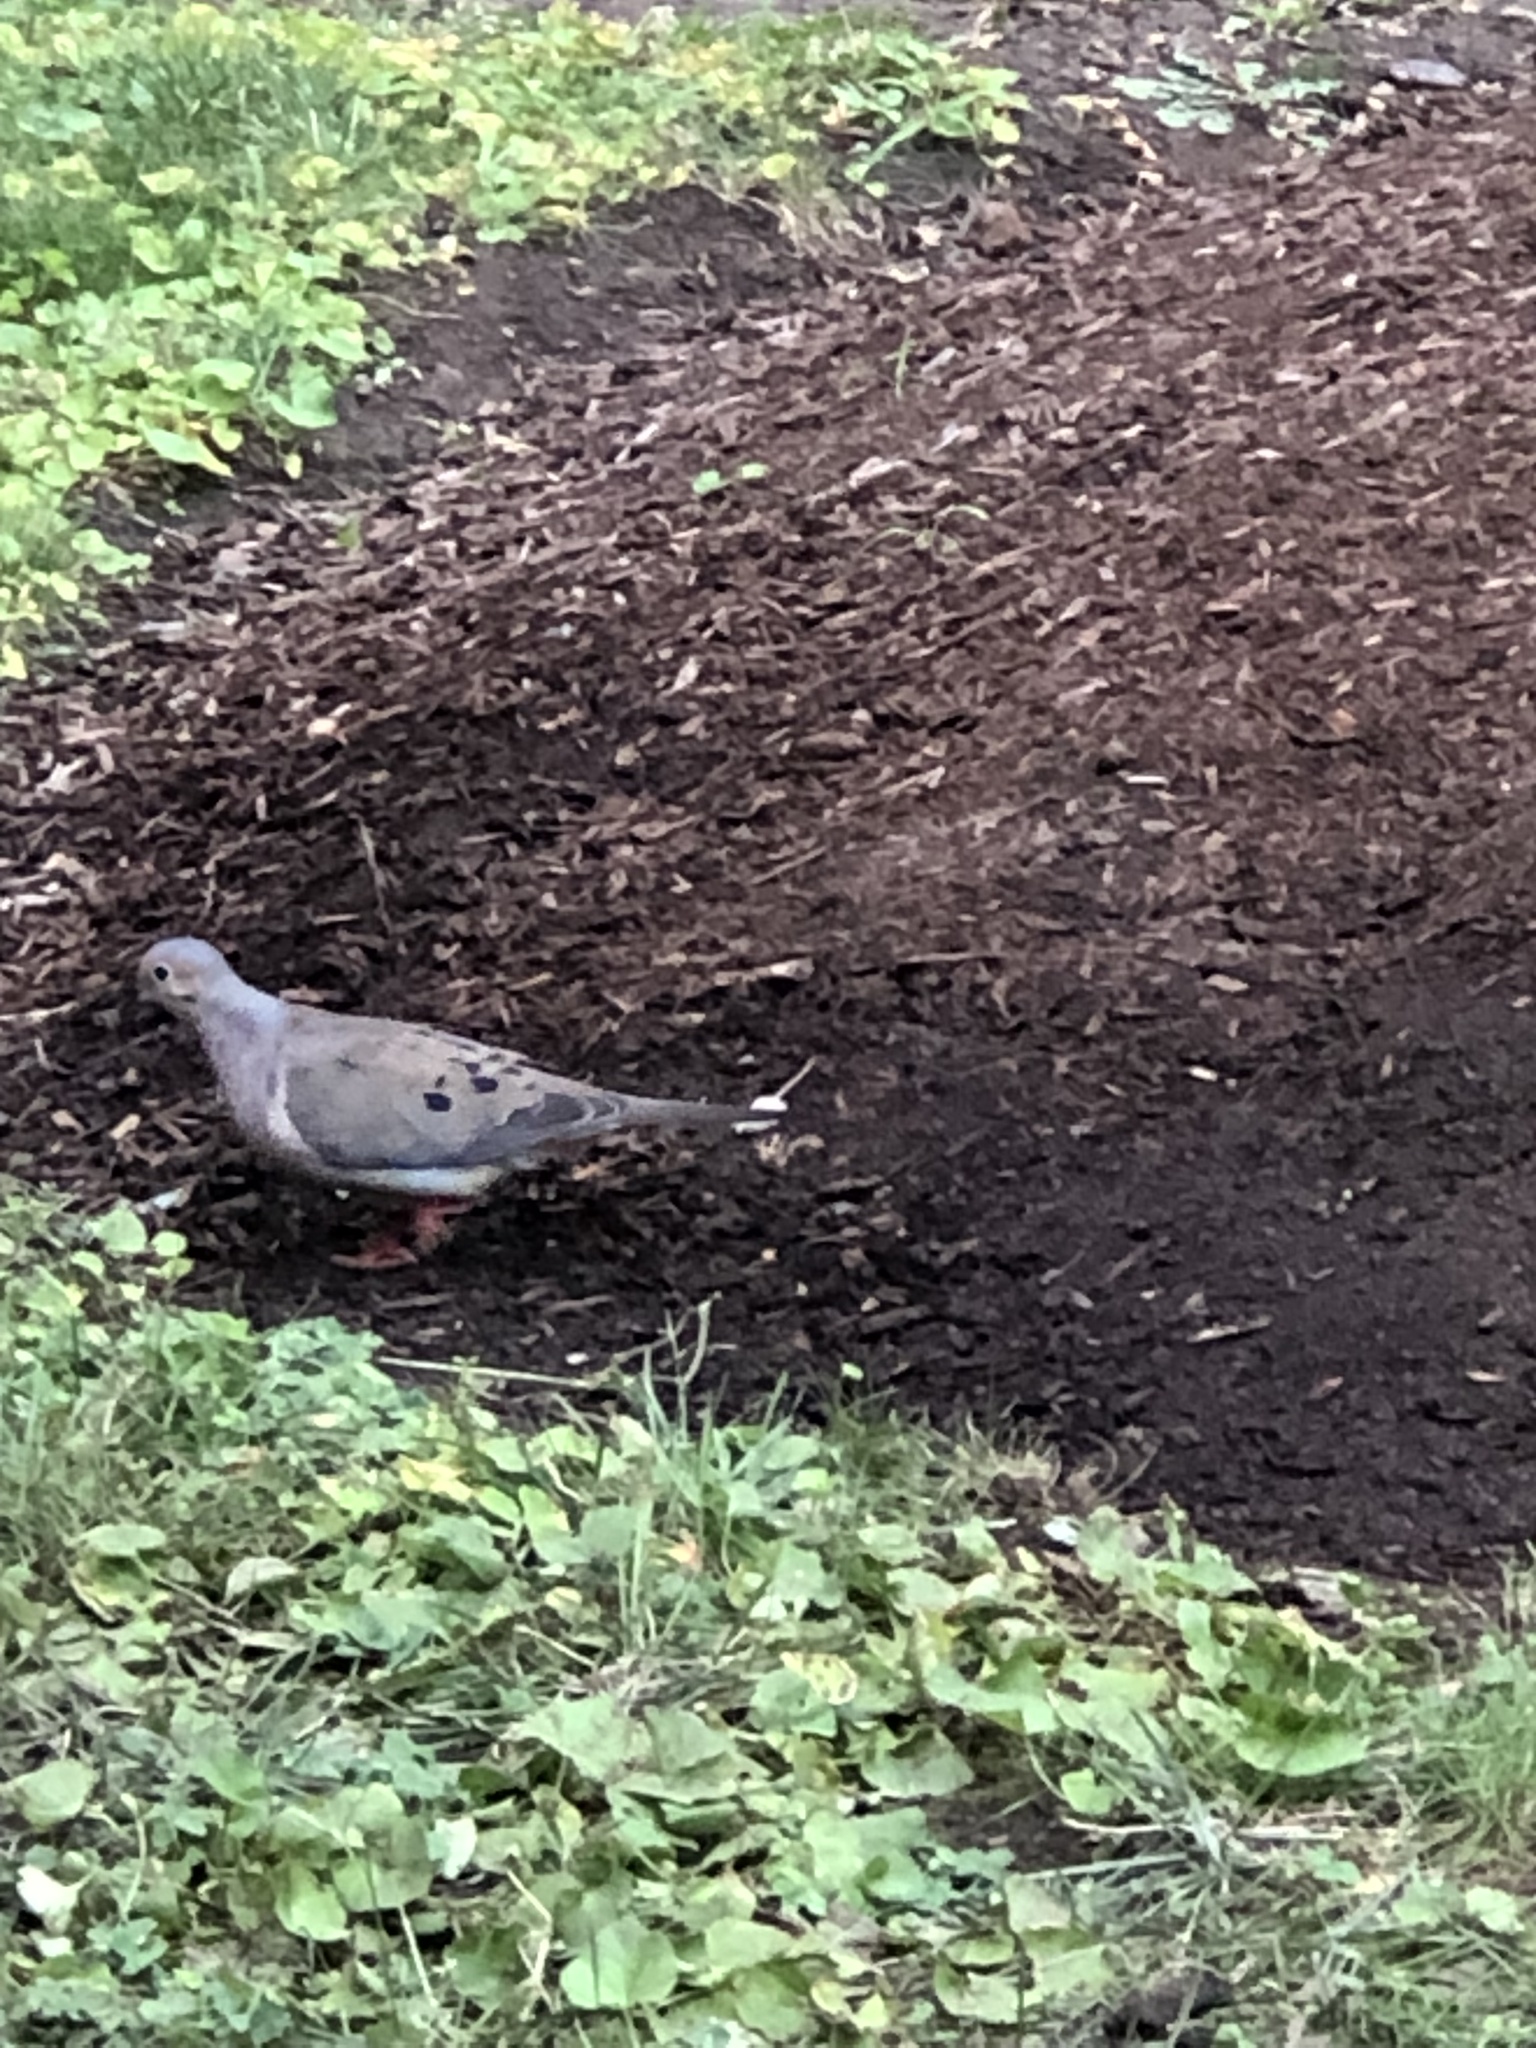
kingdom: Animalia
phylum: Chordata
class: Aves
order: Columbiformes
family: Columbidae
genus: Zenaida
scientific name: Zenaida macroura
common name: Mourning dove
